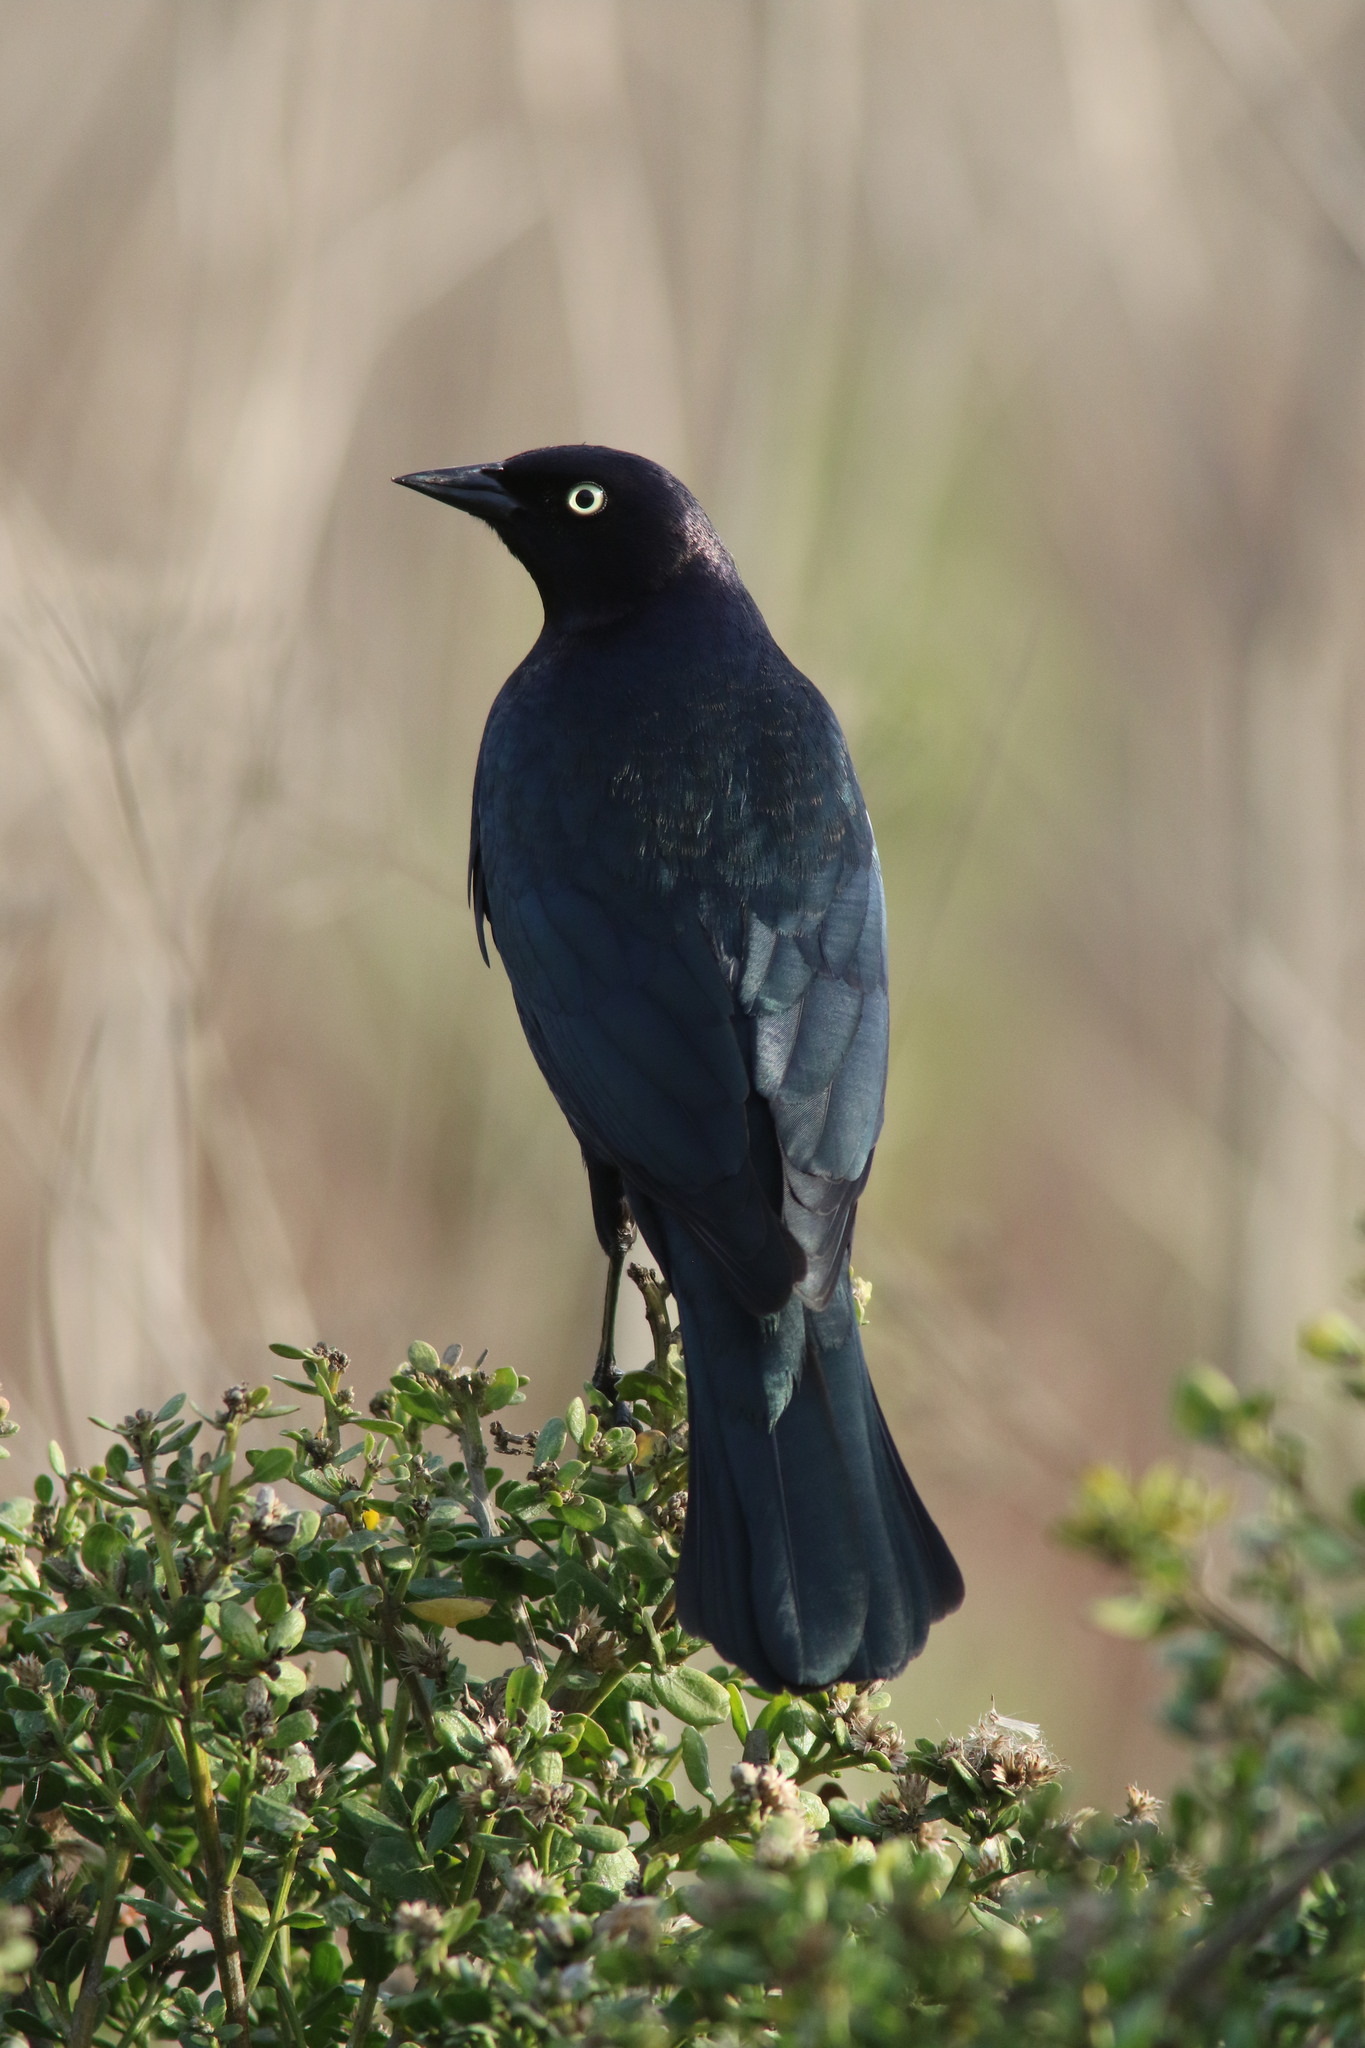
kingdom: Animalia
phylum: Chordata
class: Aves
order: Passeriformes
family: Icteridae
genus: Euphagus
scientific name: Euphagus cyanocephalus
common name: Brewer's blackbird
